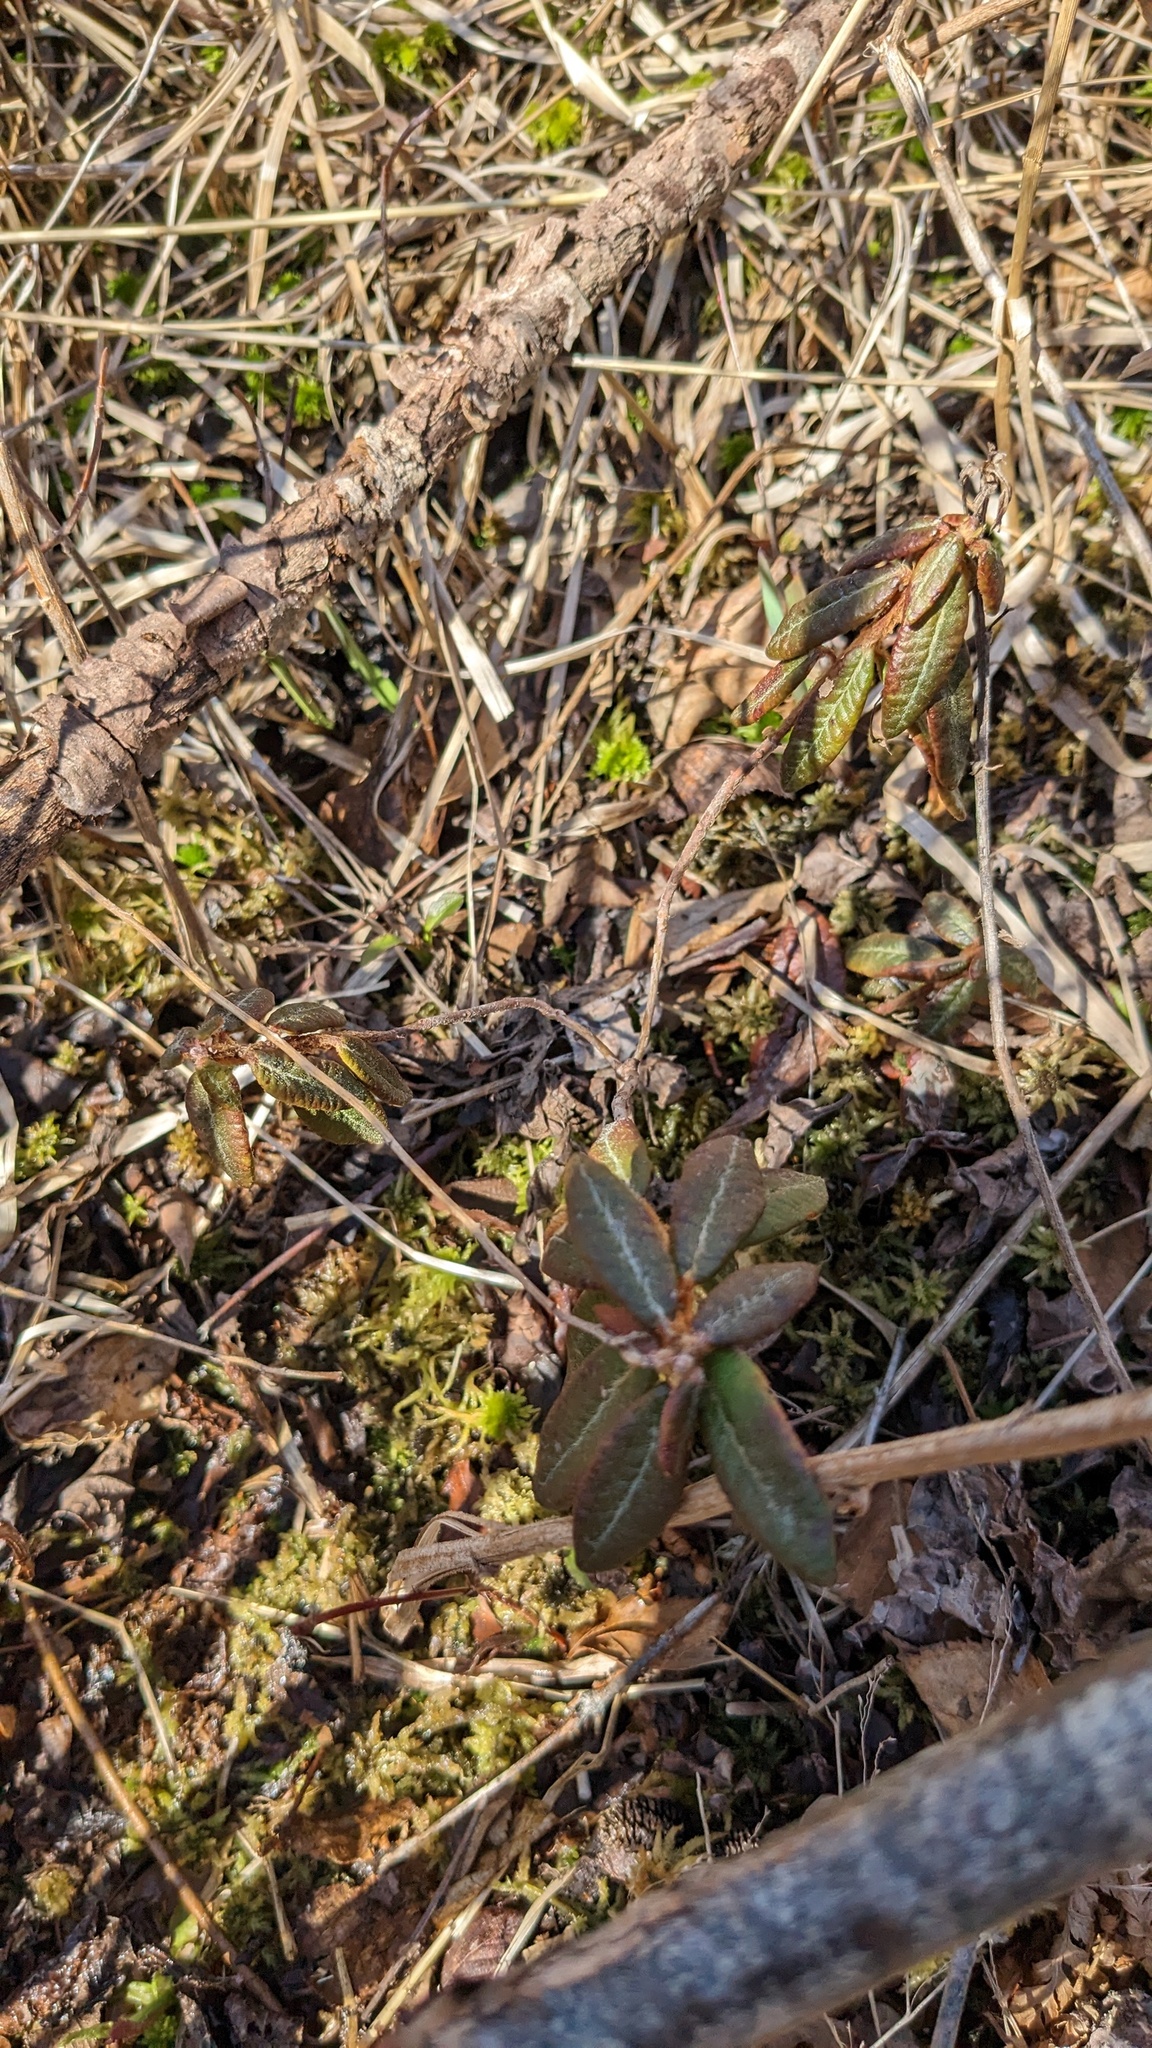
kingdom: Plantae
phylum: Tracheophyta
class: Magnoliopsida
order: Ericales
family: Ericaceae
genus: Rhododendron
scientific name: Rhododendron groenlandicum
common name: Bog labrador tea
